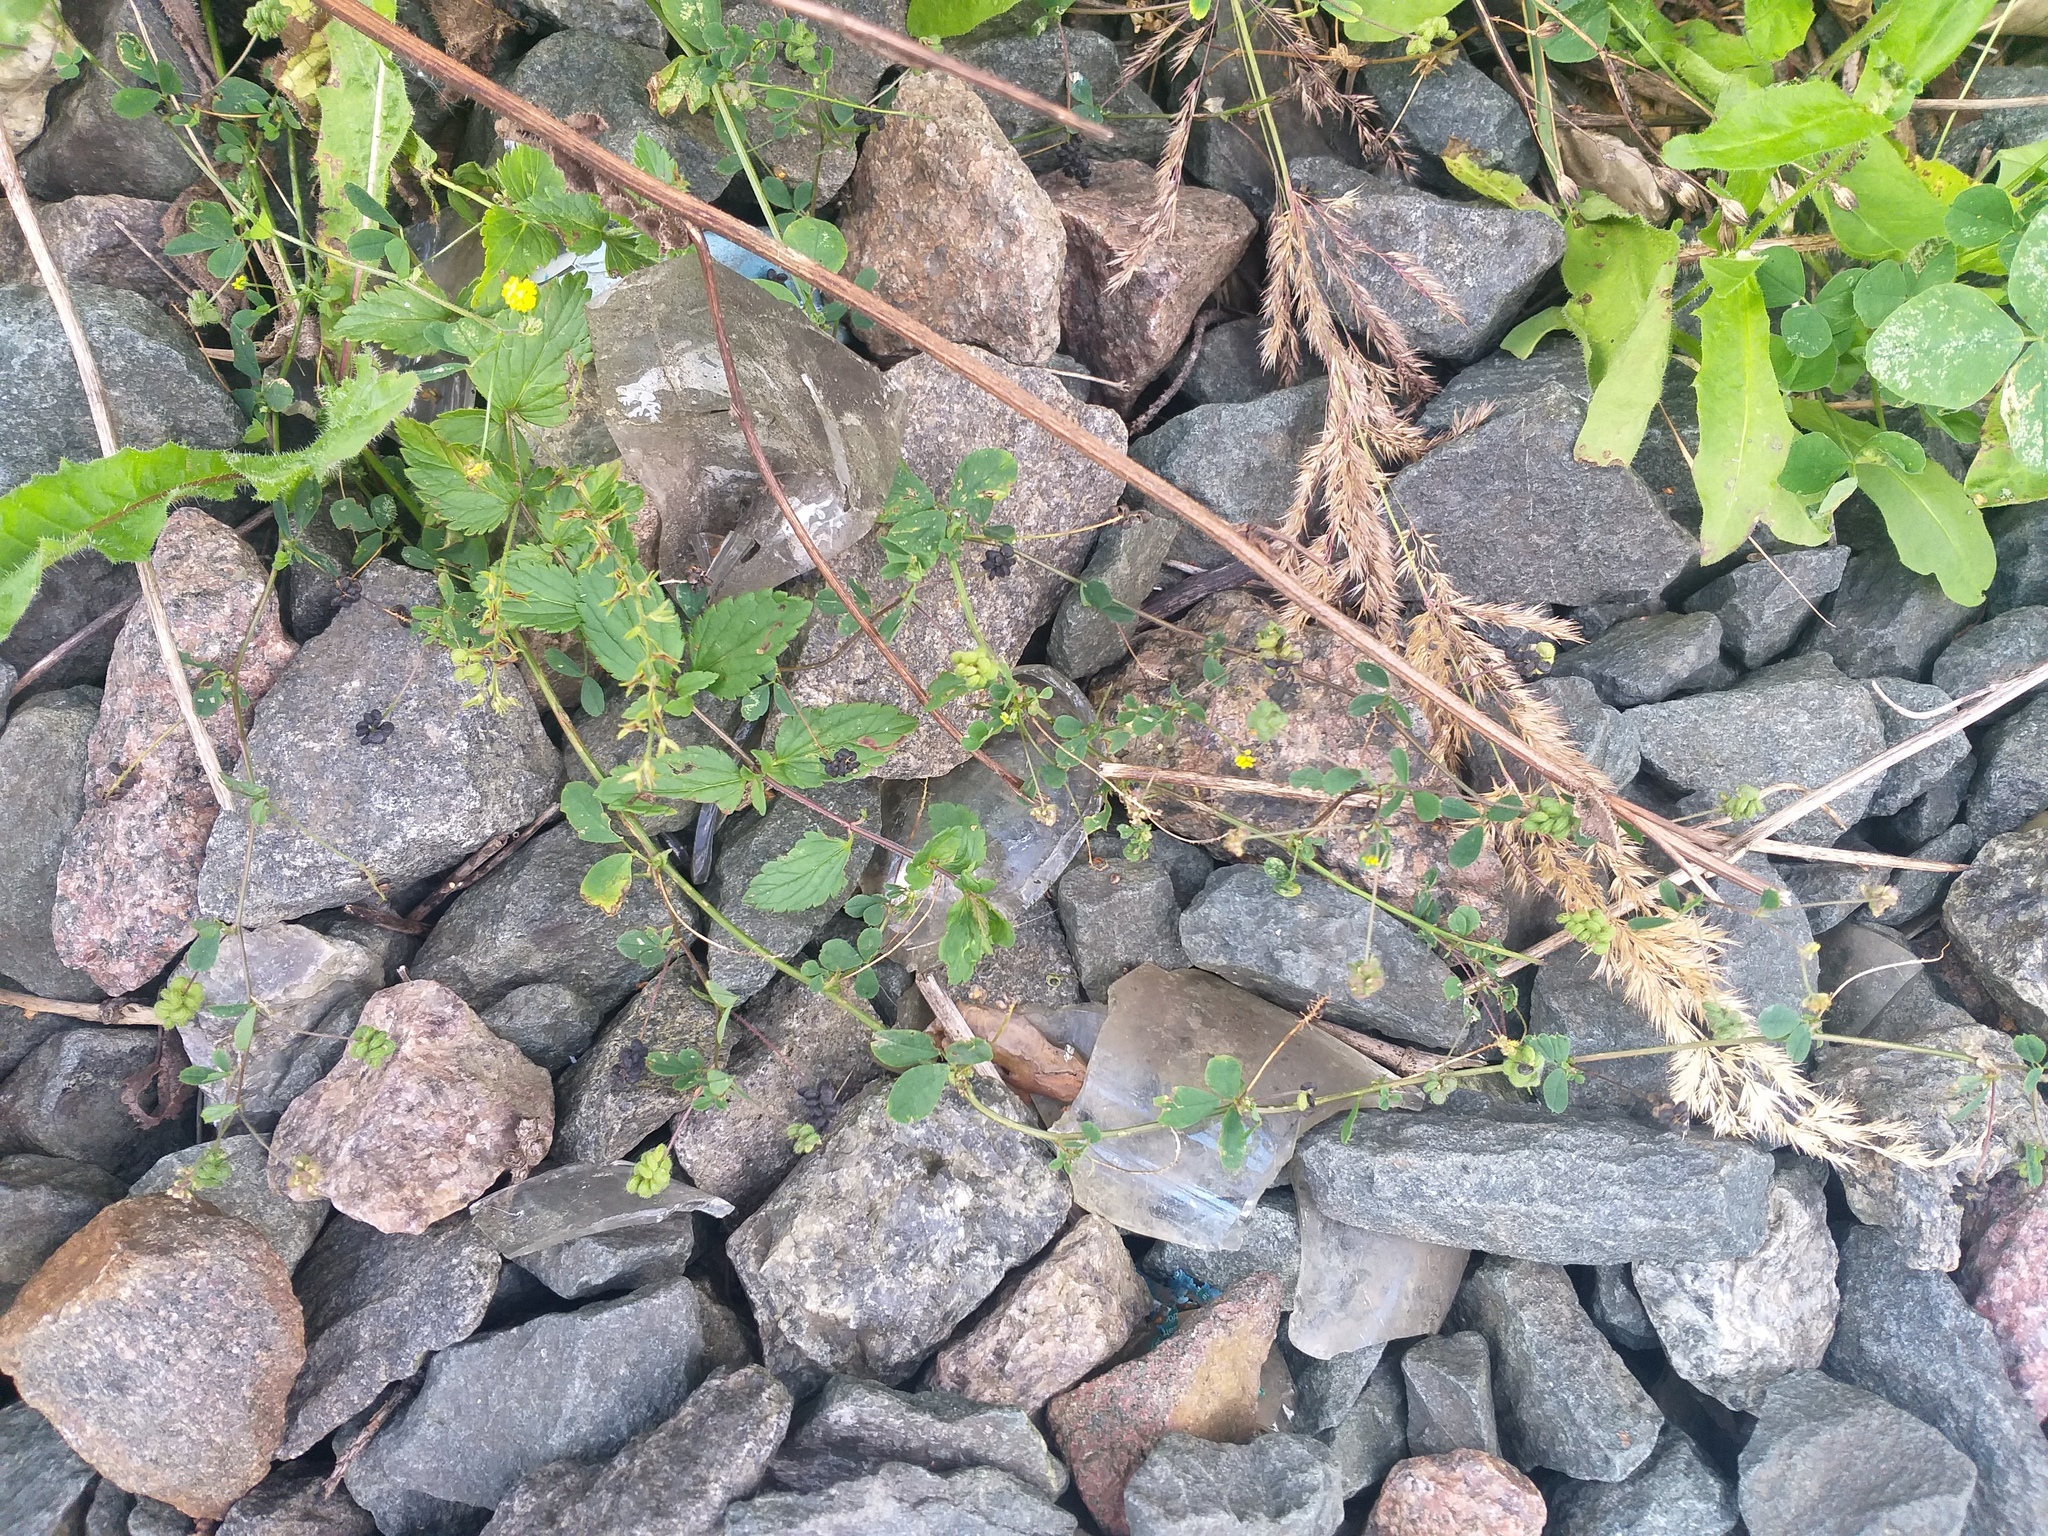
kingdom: Plantae
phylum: Tracheophyta
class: Magnoliopsida
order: Fabales
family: Fabaceae
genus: Medicago
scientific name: Medicago lupulina
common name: Black medick
